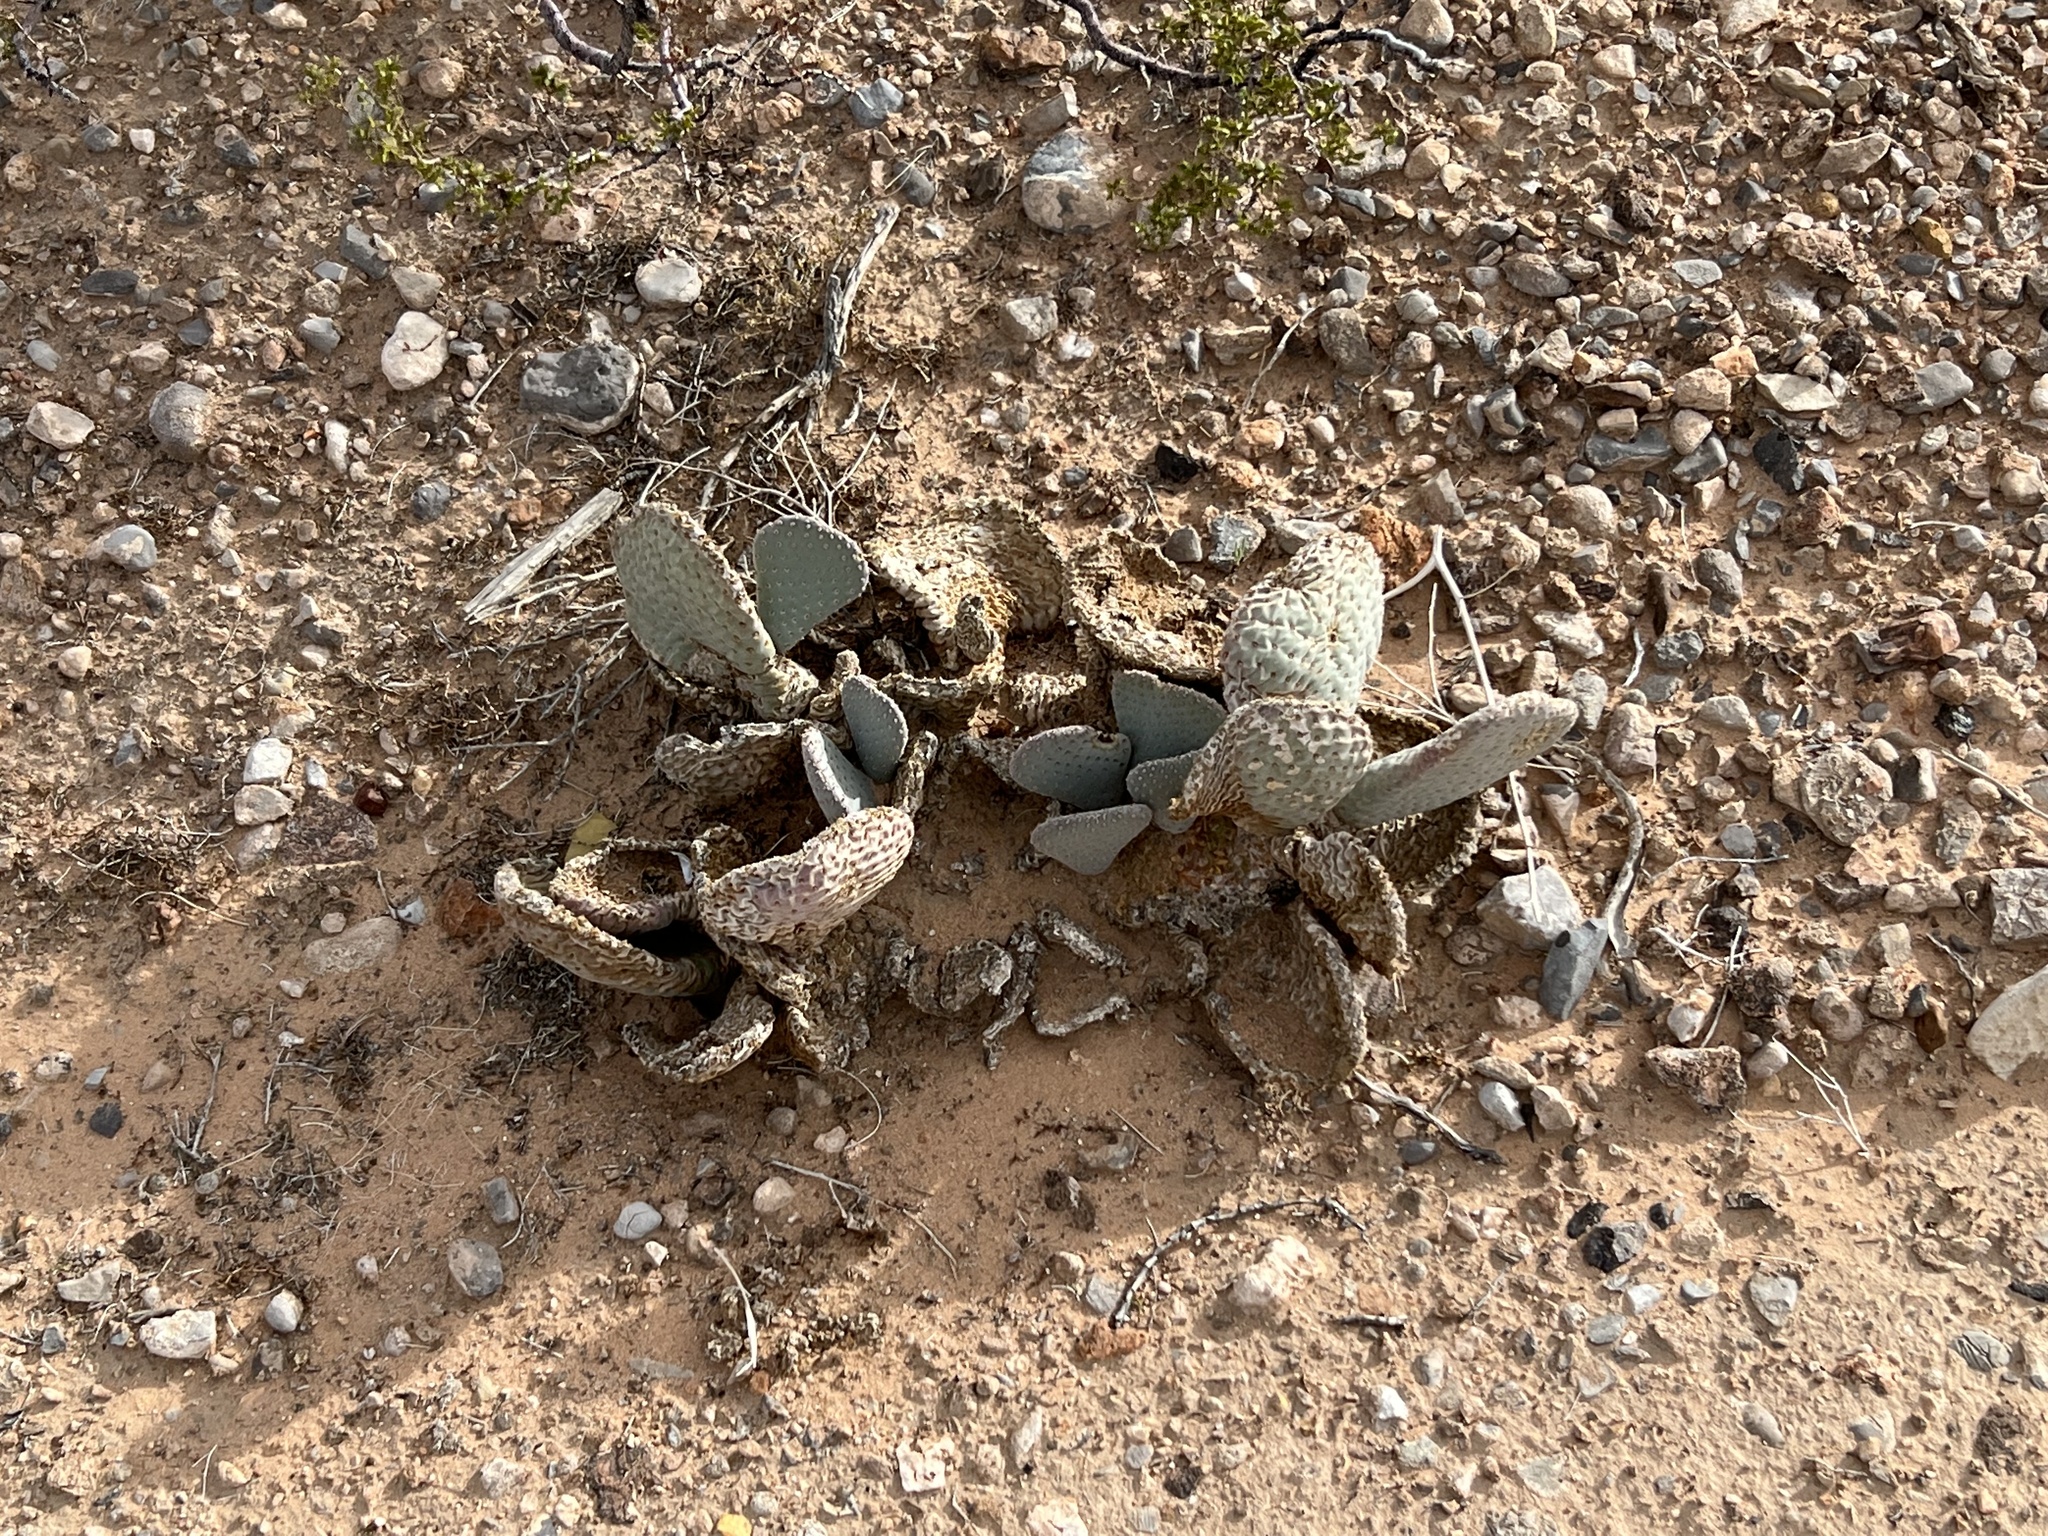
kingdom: Plantae
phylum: Tracheophyta
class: Magnoliopsida
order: Caryophyllales
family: Cactaceae
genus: Opuntia
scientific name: Opuntia basilaris
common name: Beavertail prickly-pear
